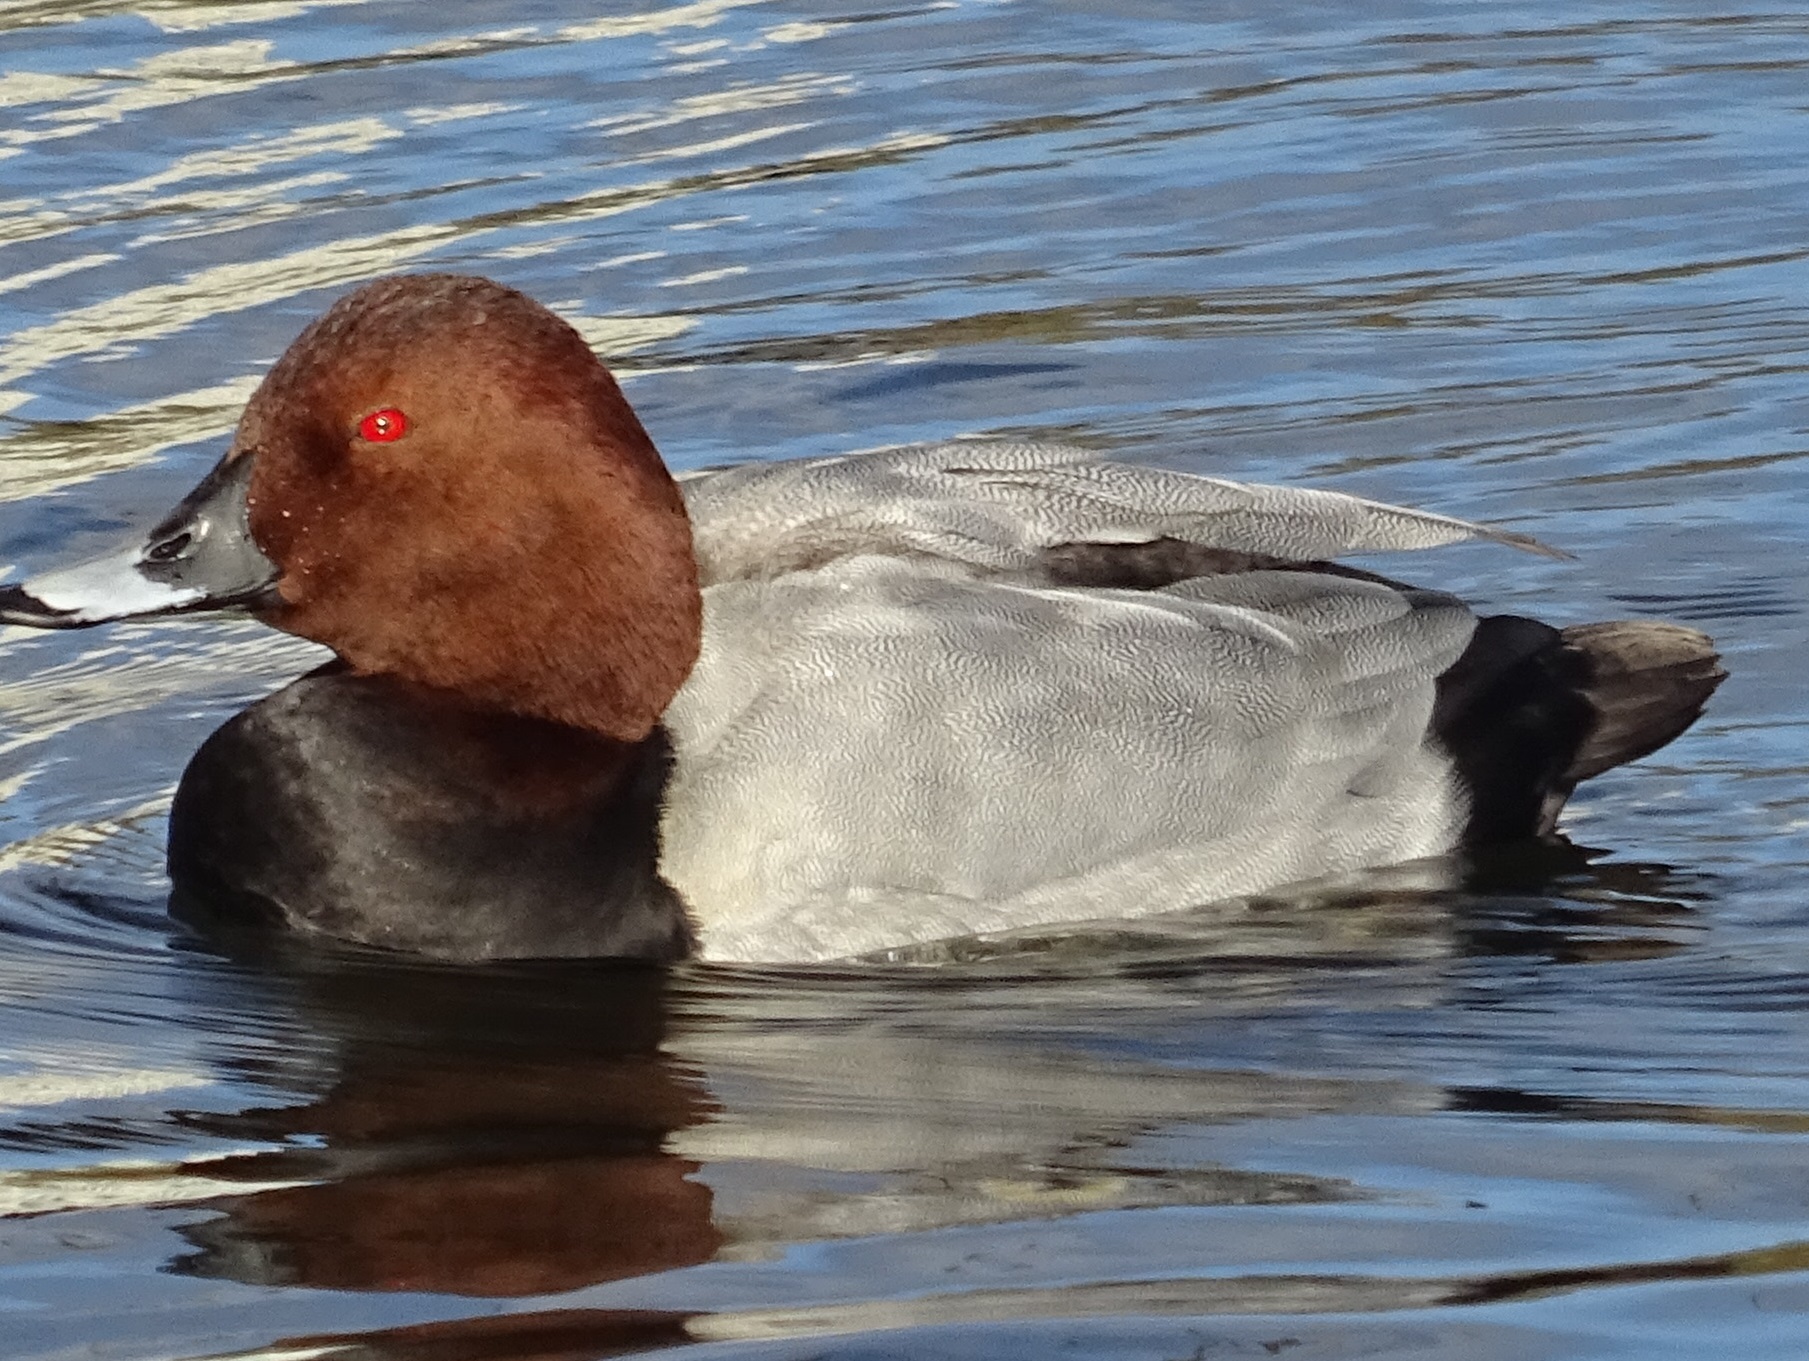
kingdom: Animalia
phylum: Chordata
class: Aves
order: Anseriformes
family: Anatidae
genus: Aythya
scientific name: Aythya ferina
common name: Common pochard
